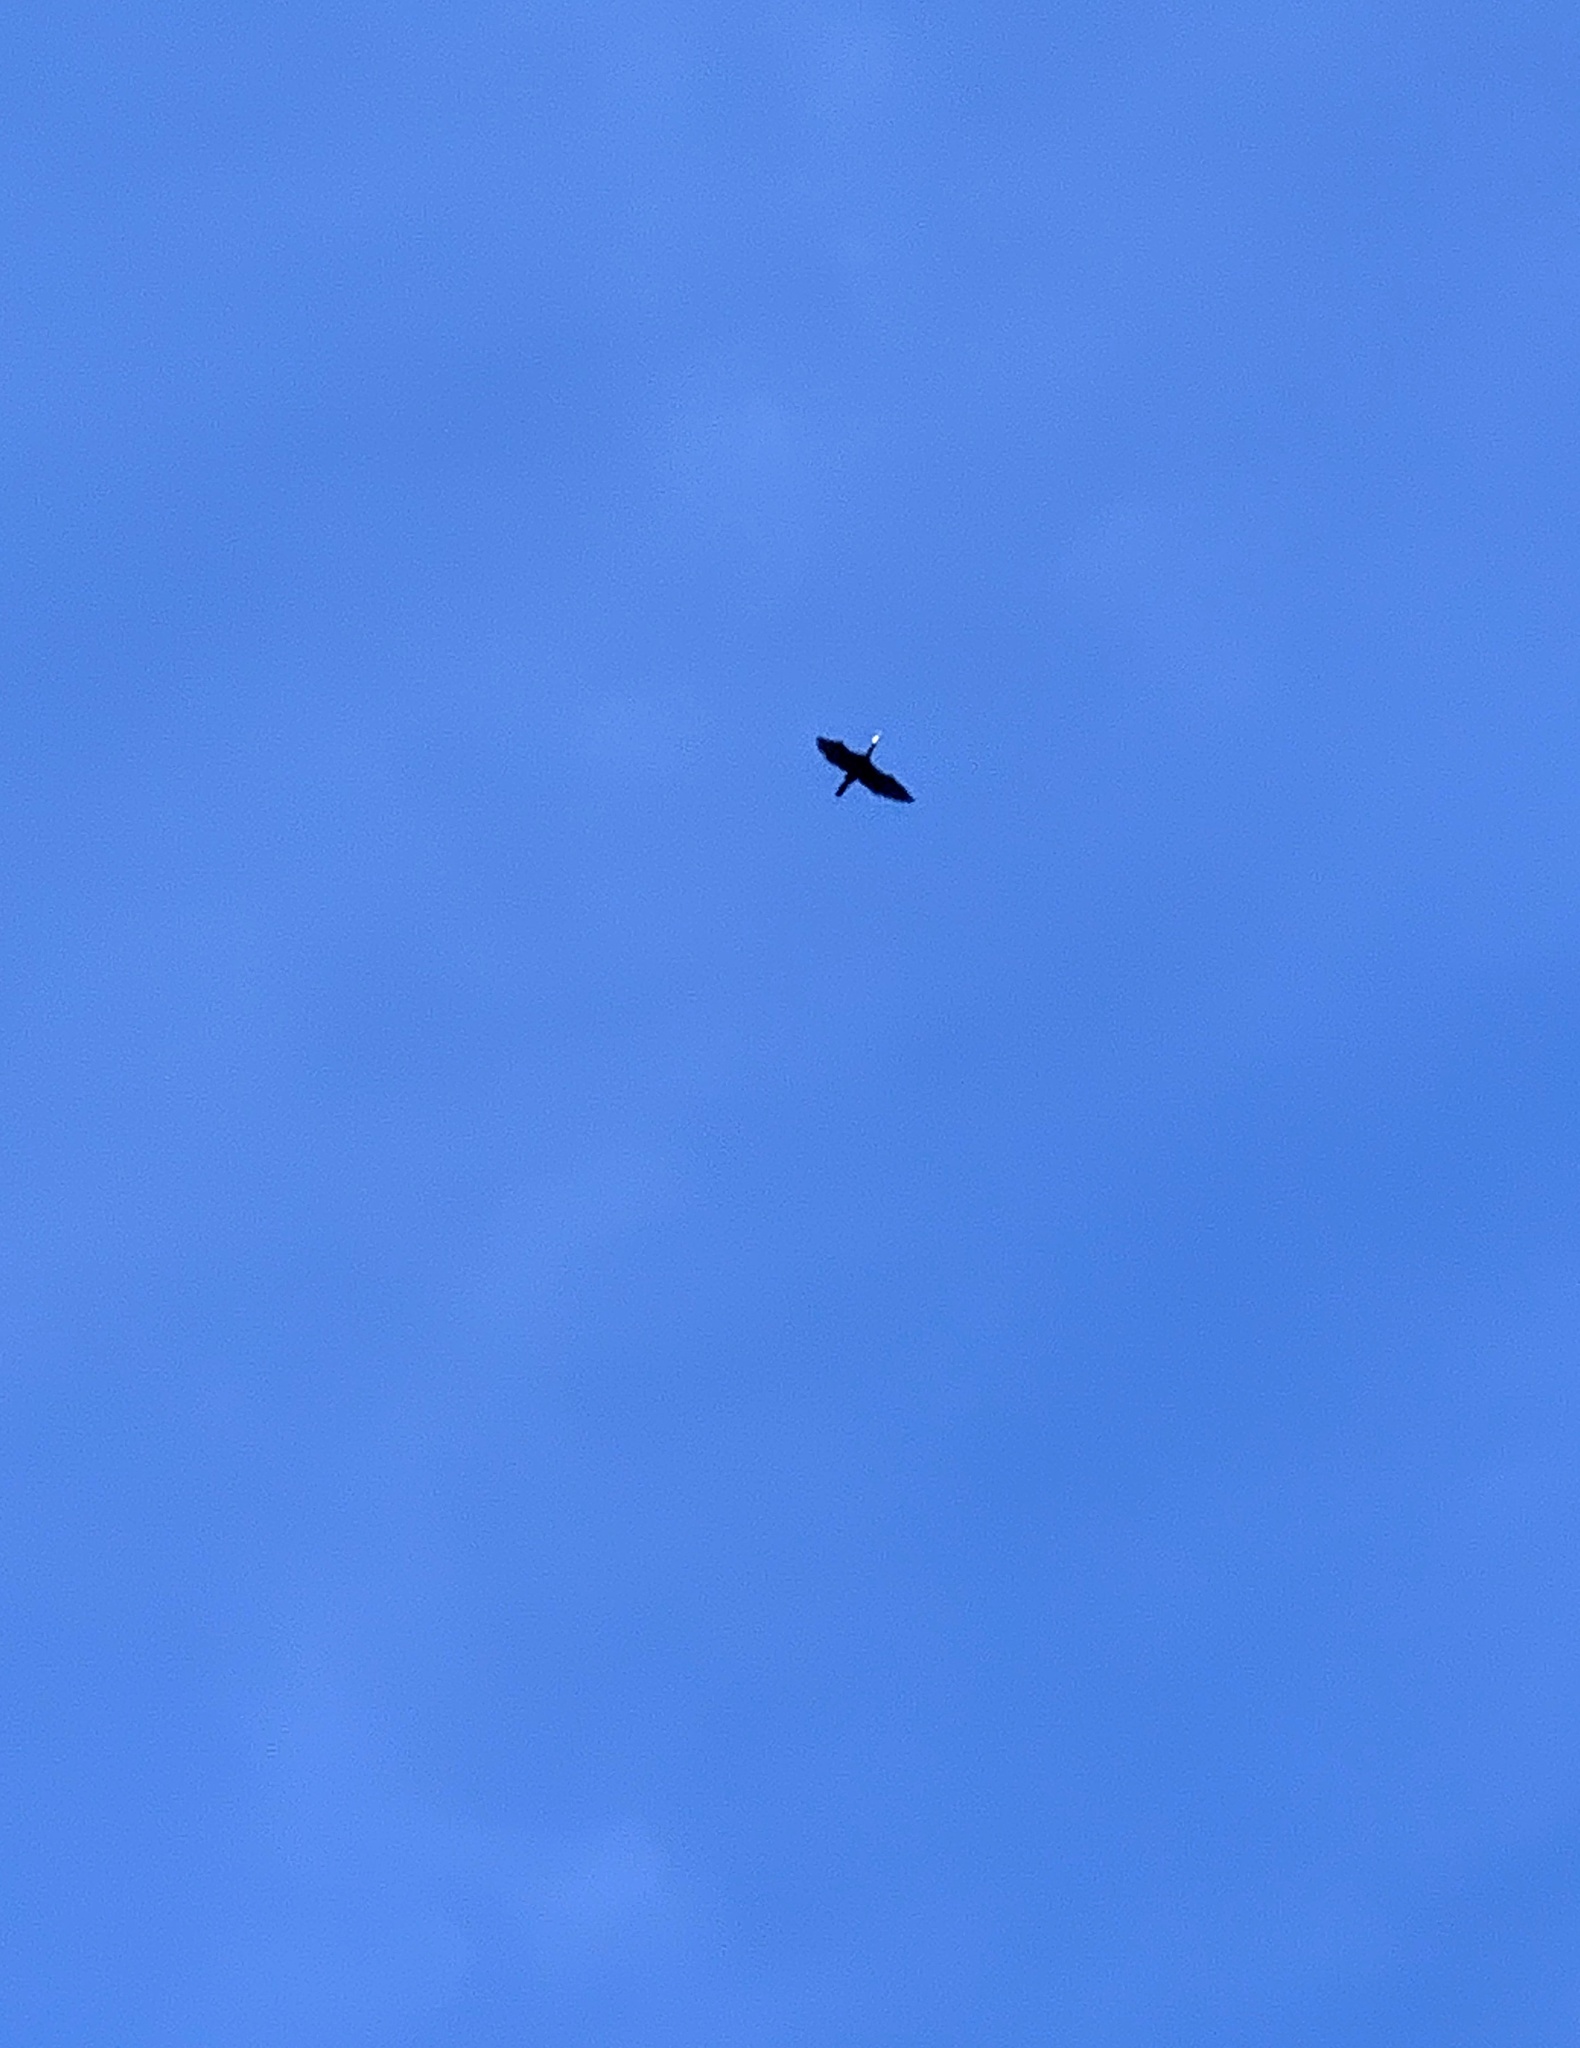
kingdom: Animalia
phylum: Chordata
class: Aves
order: Suliformes
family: Phalacrocoracidae
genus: Phalacrocorax
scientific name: Phalacrocorax carbo
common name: Great cormorant
